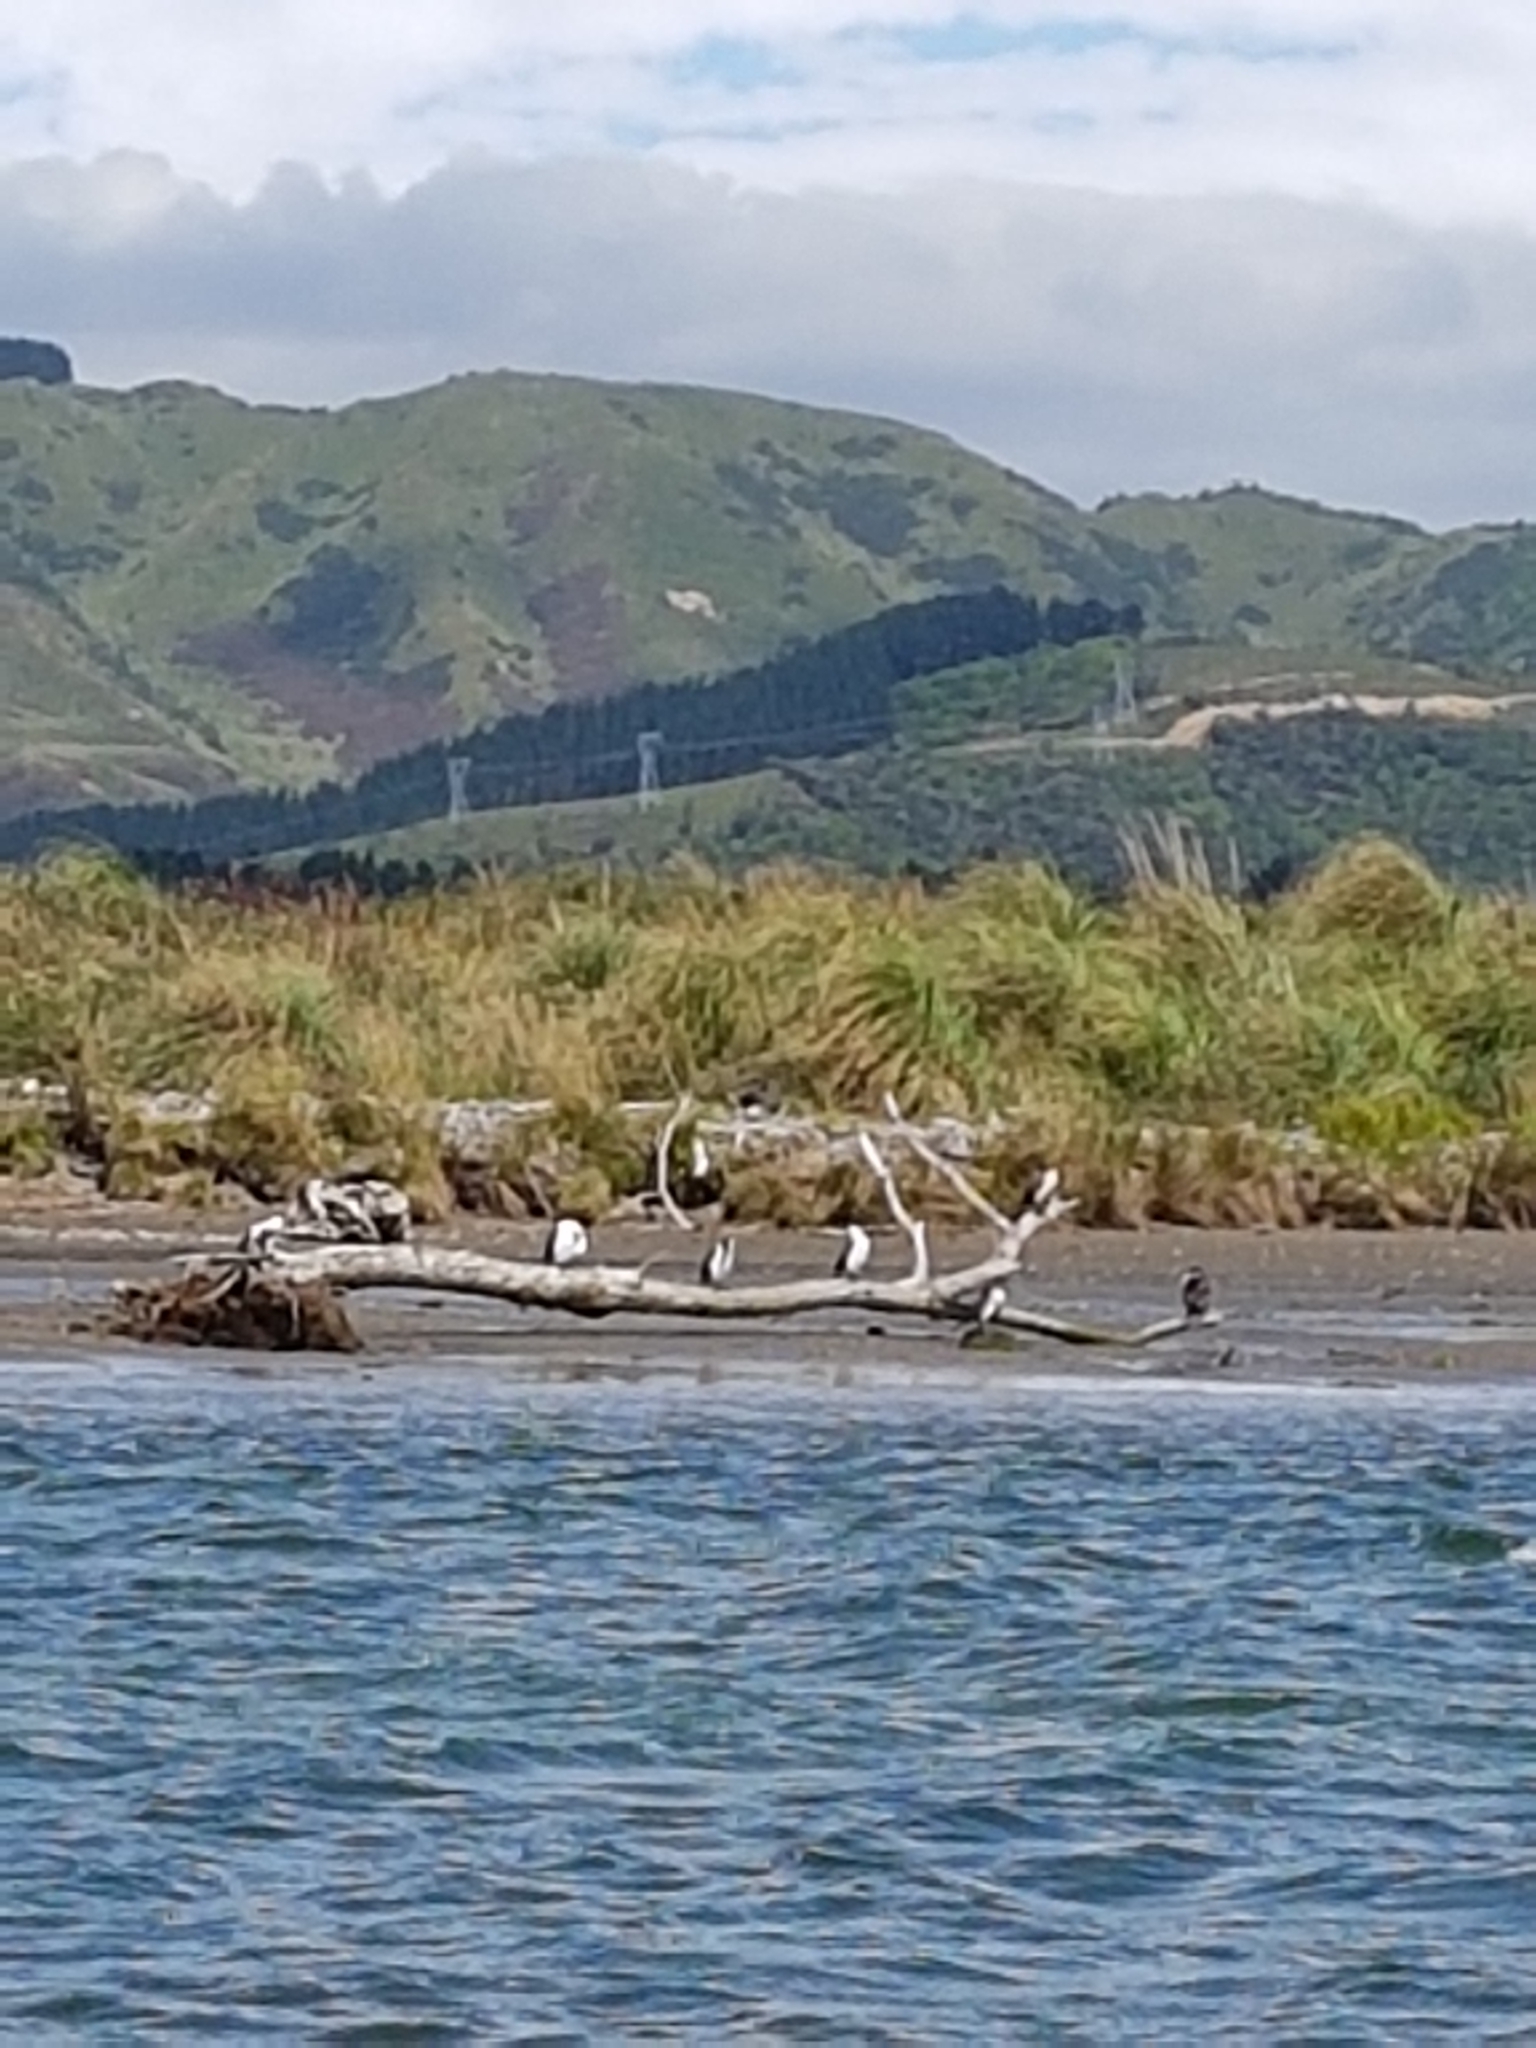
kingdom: Animalia
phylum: Chordata
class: Aves
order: Suliformes
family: Phalacrocoracidae
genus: Phalacrocorax
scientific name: Phalacrocorax varius
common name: Pied cormorant
